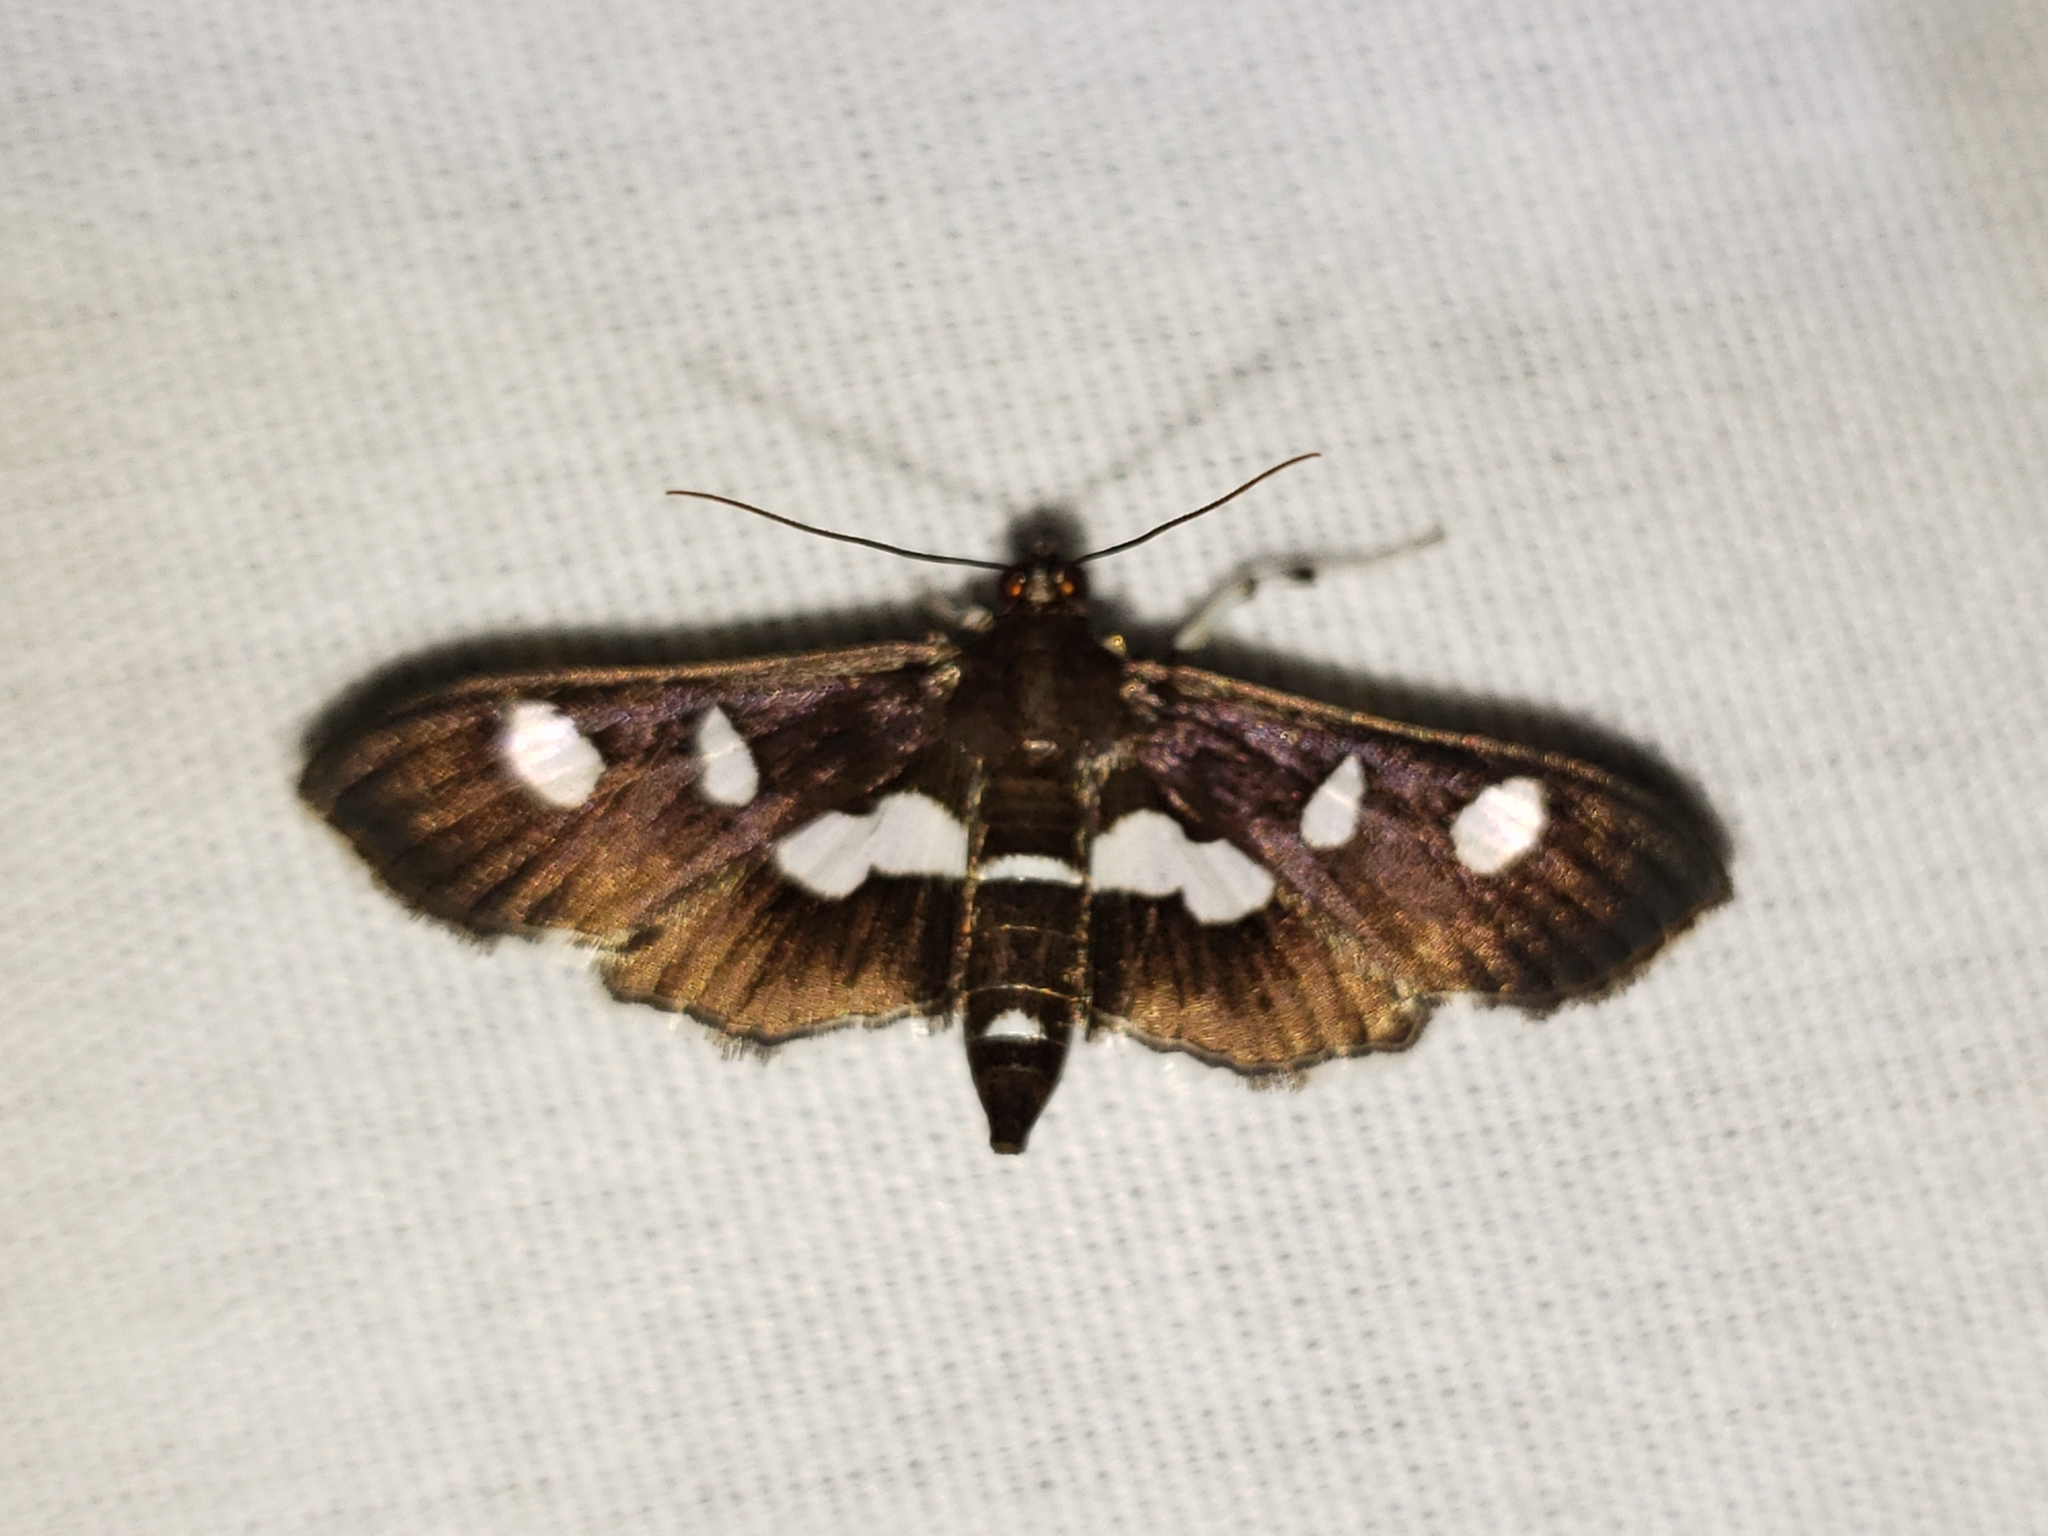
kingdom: Animalia
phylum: Arthropoda
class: Insecta
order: Lepidoptera
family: Crambidae
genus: Desmia
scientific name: Desmia funeralis
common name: Grape leaf folder moth
